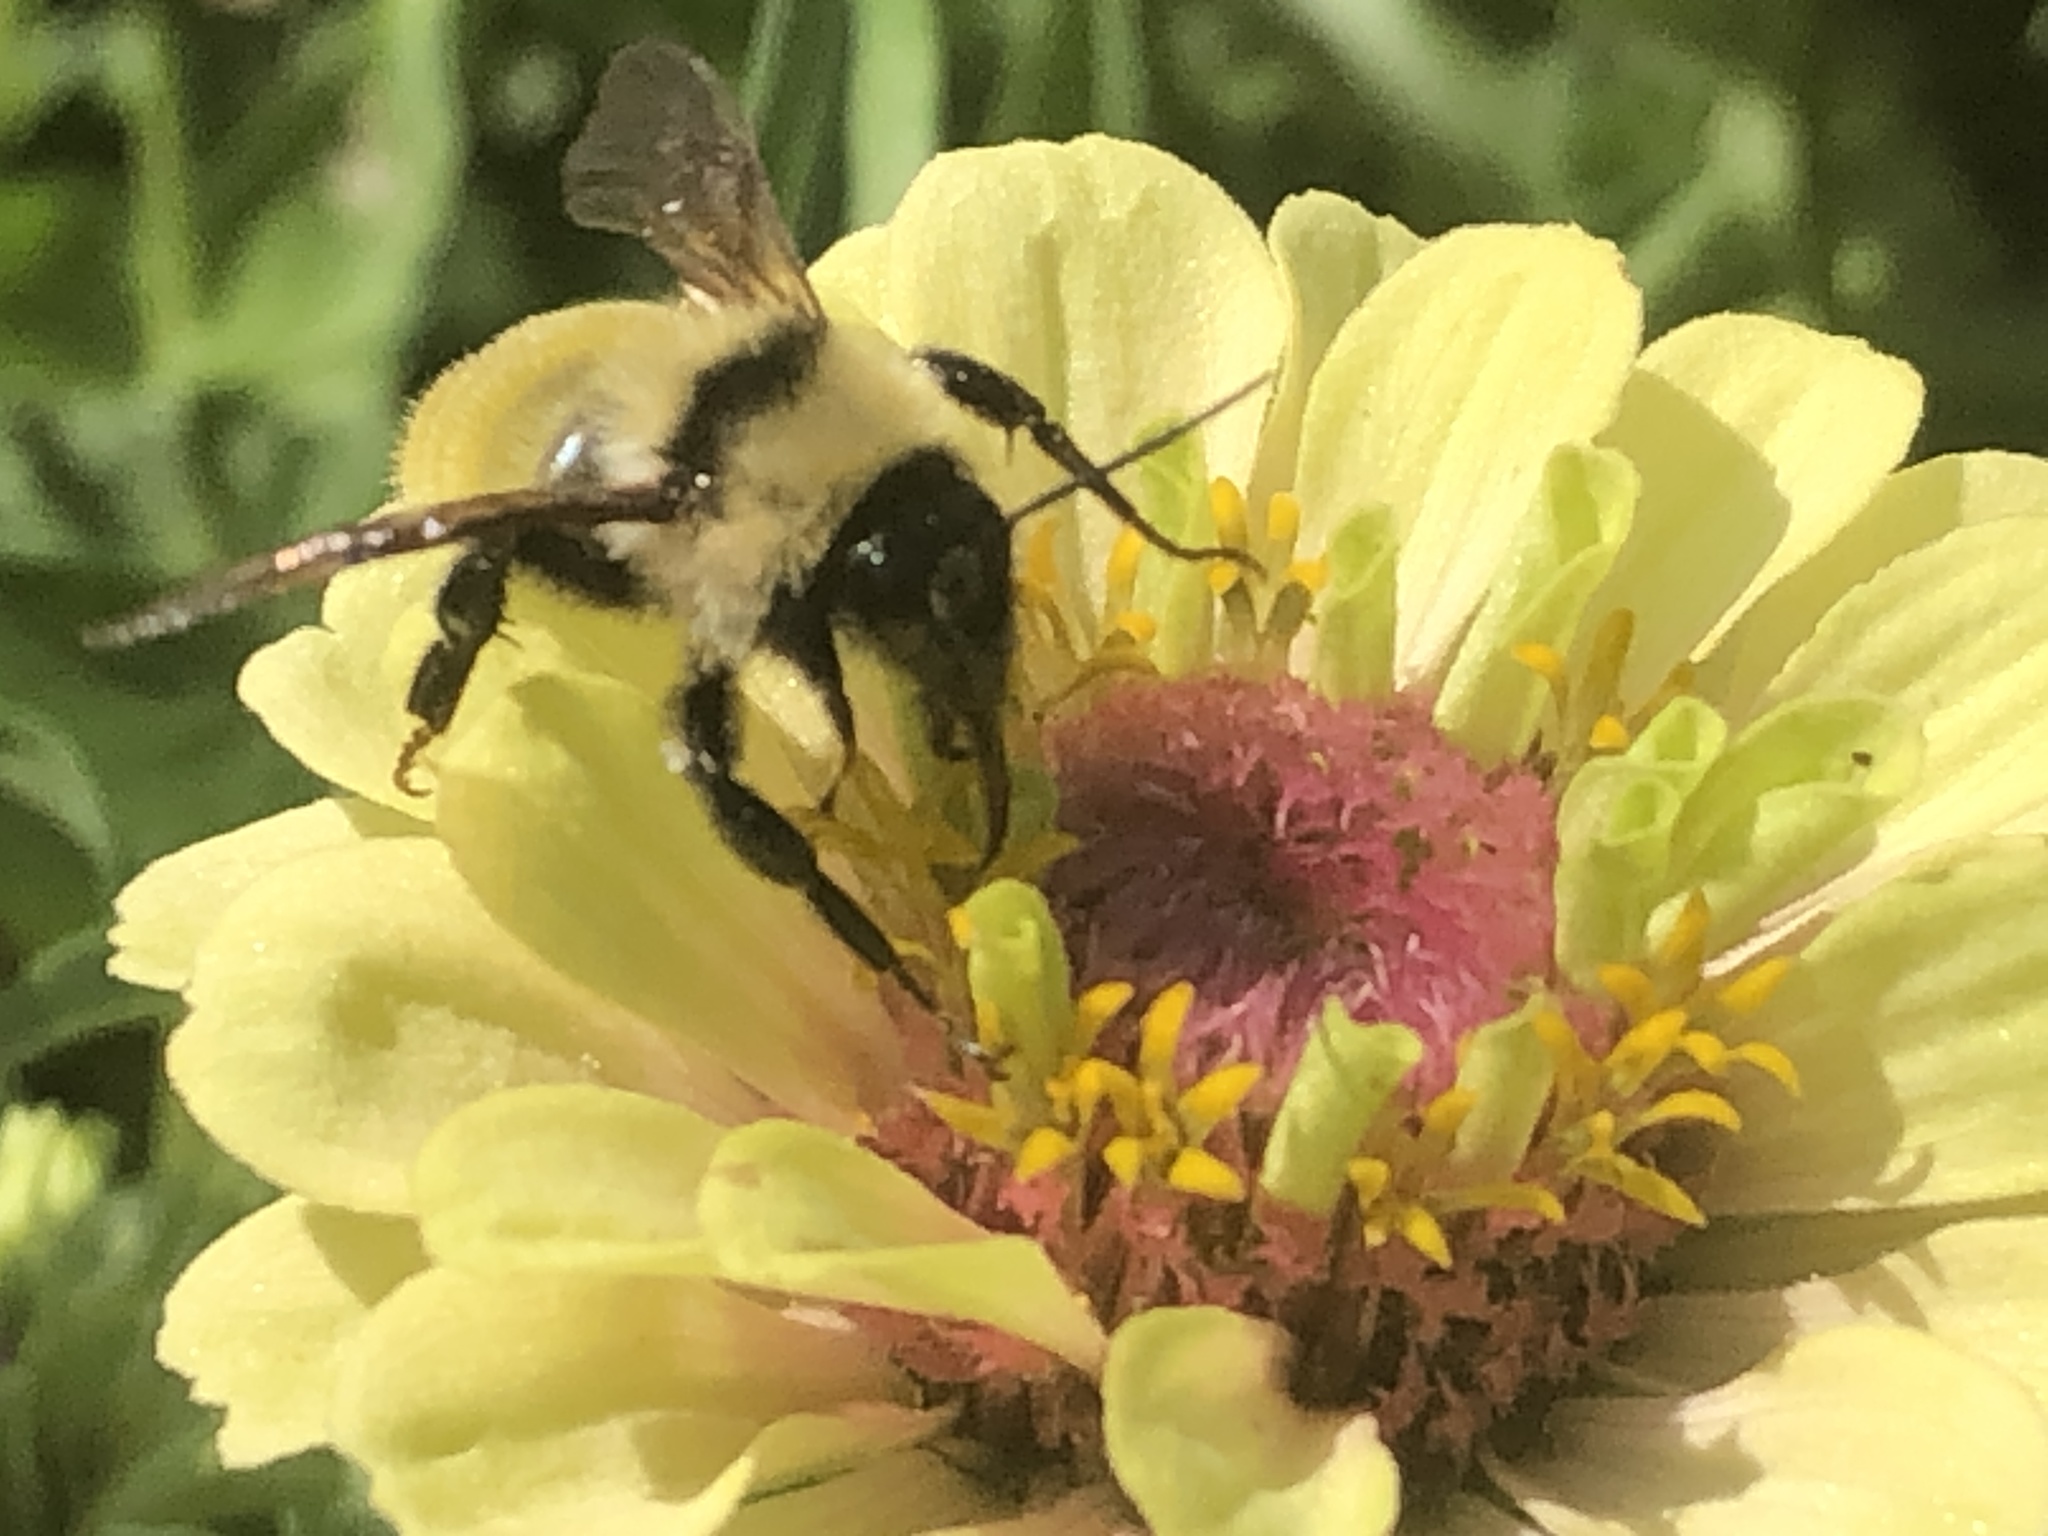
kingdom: Animalia
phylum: Arthropoda
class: Insecta
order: Hymenoptera
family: Apidae
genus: Bombus
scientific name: Bombus fervidus
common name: Yellow bumble bee
